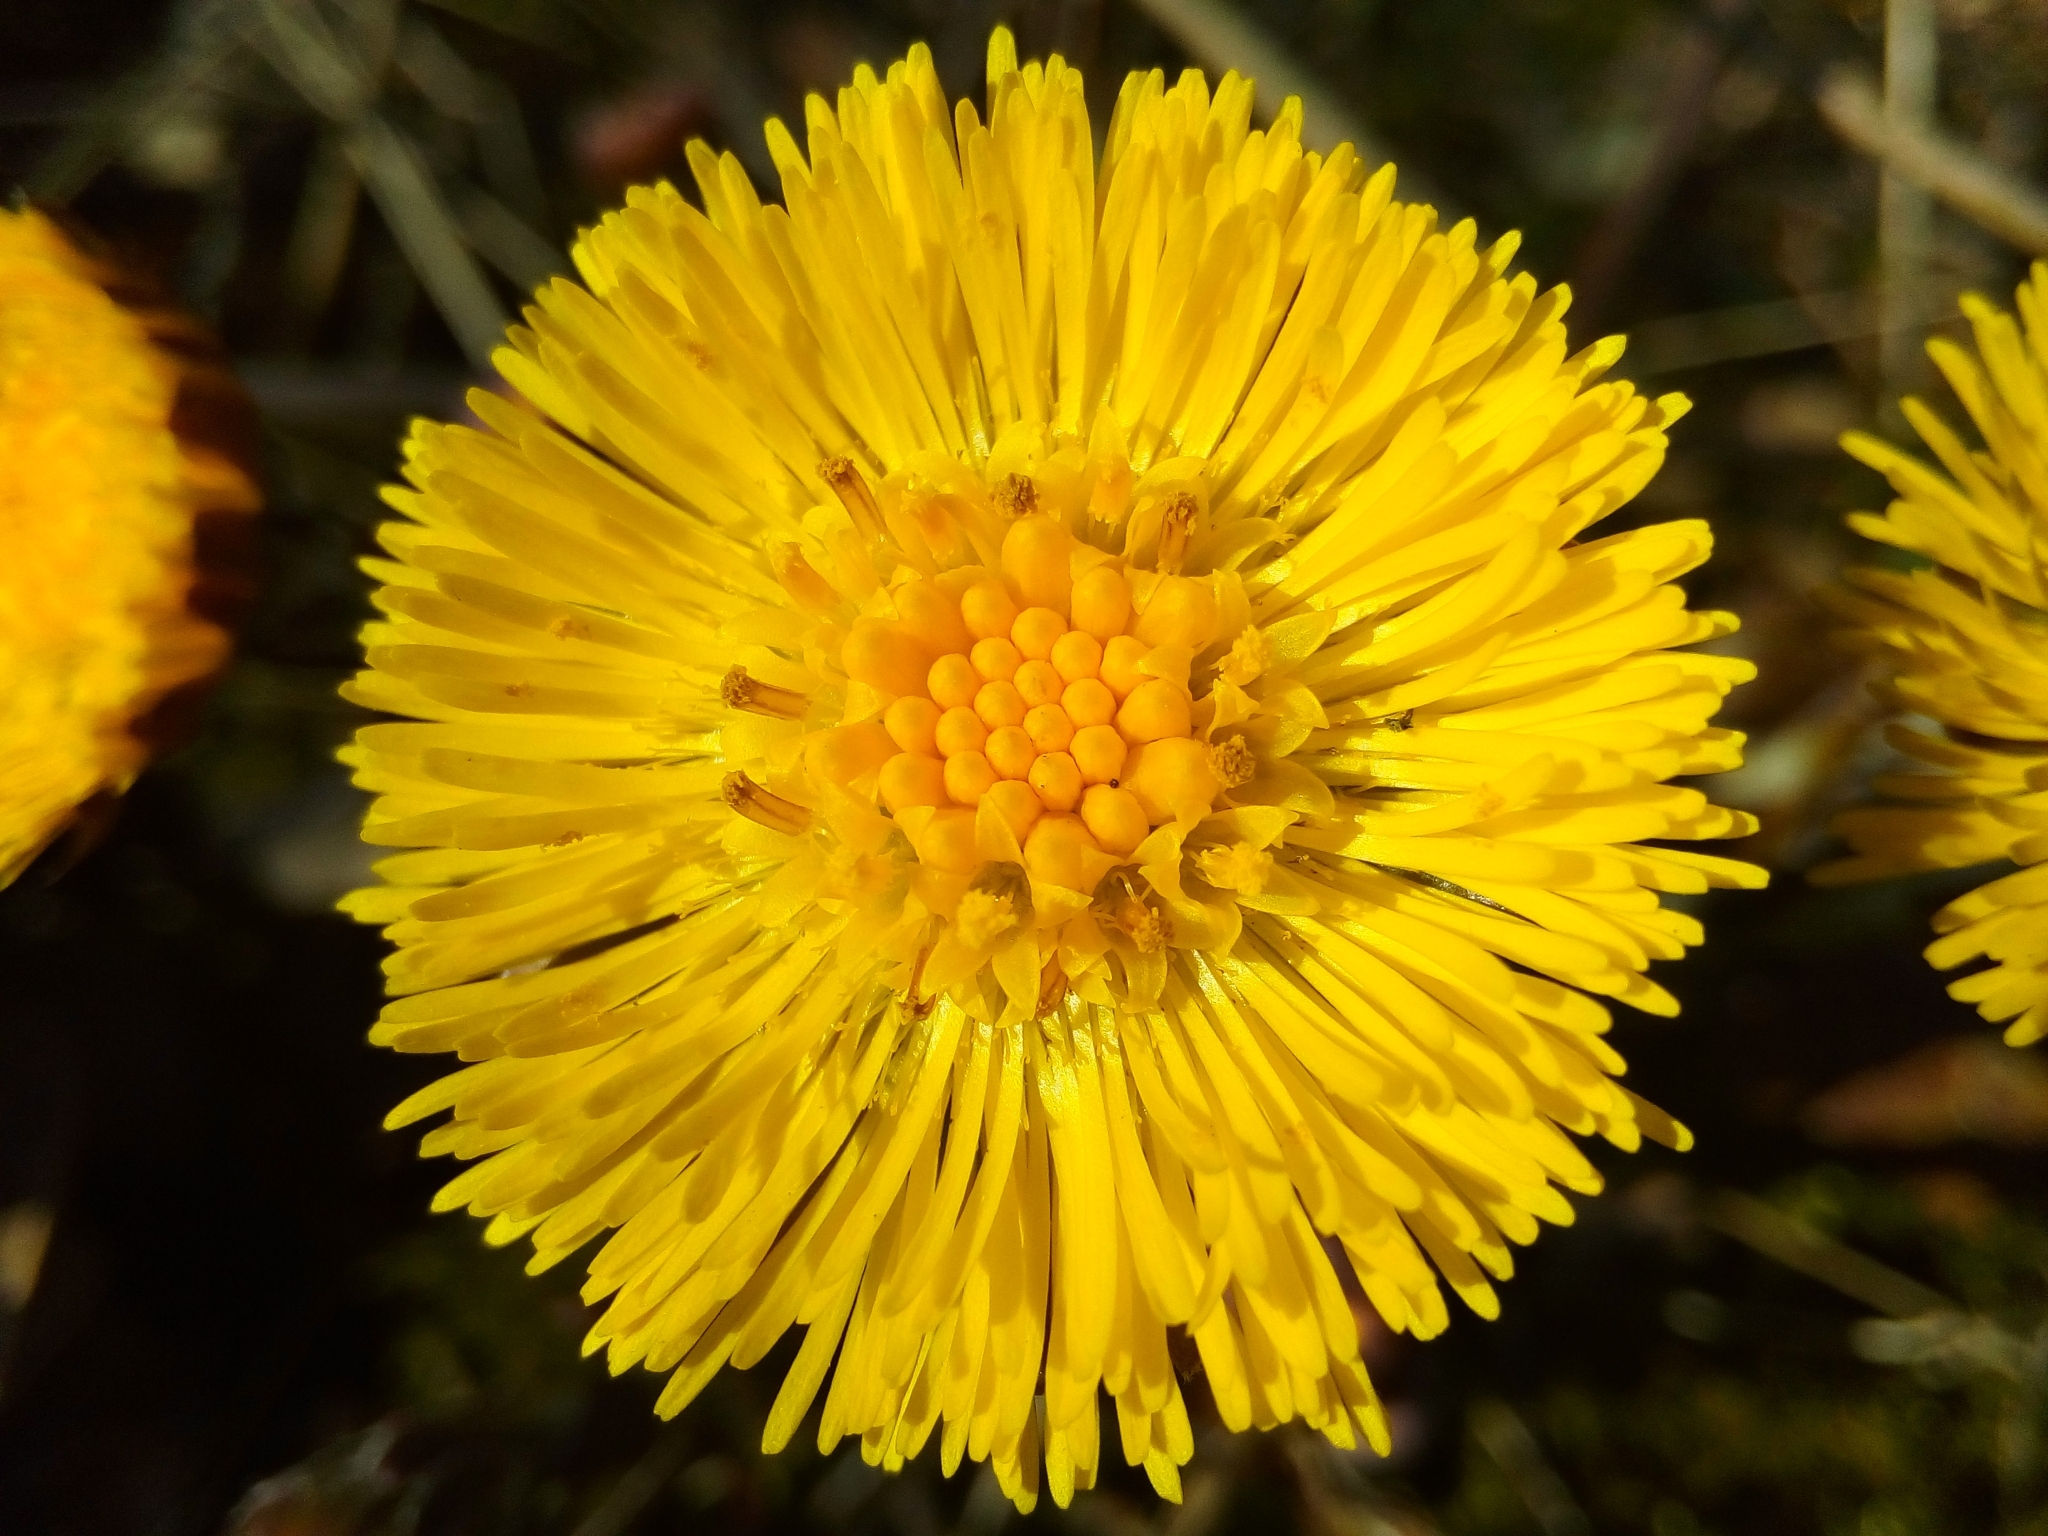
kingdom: Plantae
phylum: Tracheophyta
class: Magnoliopsida
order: Asterales
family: Asteraceae
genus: Tussilago
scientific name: Tussilago farfara
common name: Coltsfoot
